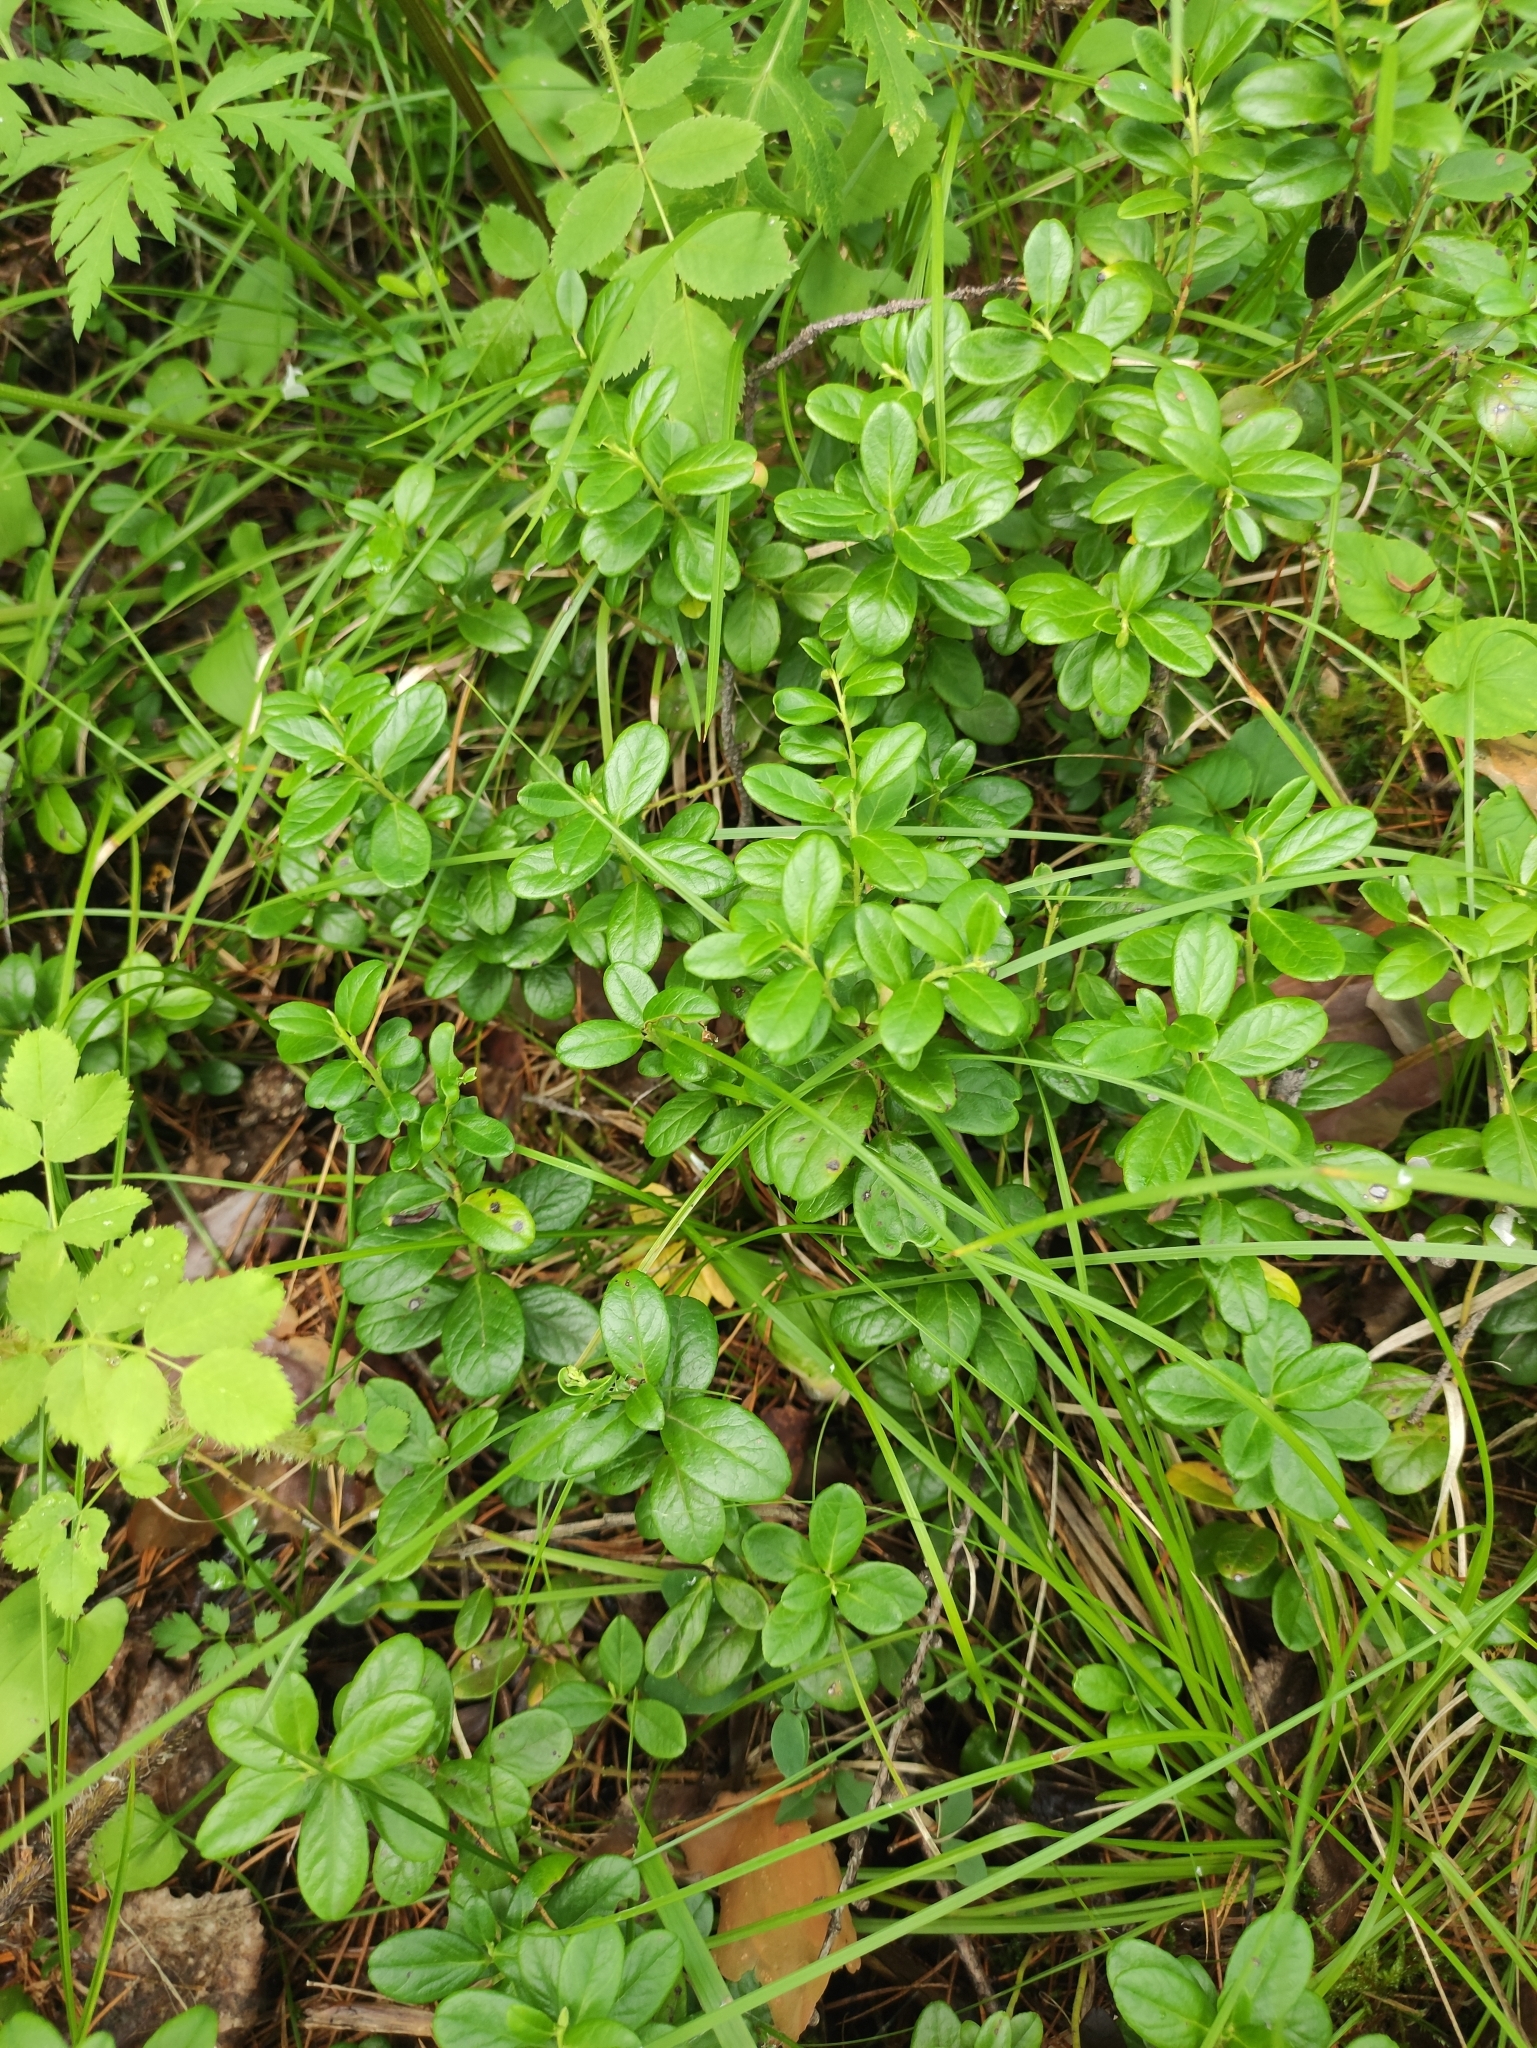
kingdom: Plantae
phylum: Tracheophyta
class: Magnoliopsida
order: Ericales
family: Ericaceae
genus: Vaccinium
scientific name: Vaccinium vitis-idaea
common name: Cowberry
